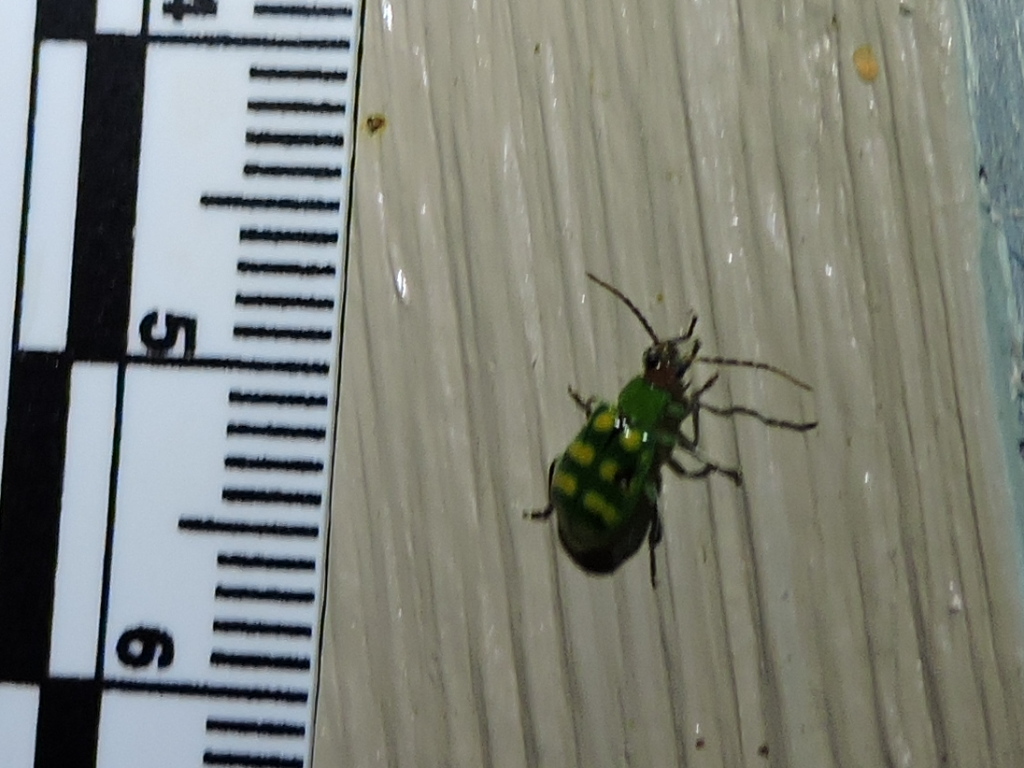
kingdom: Animalia
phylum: Arthropoda
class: Insecta
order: Coleoptera
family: Chrysomelidae
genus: Diabrotica
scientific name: Diabrotica balteata
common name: Leaf beetle
